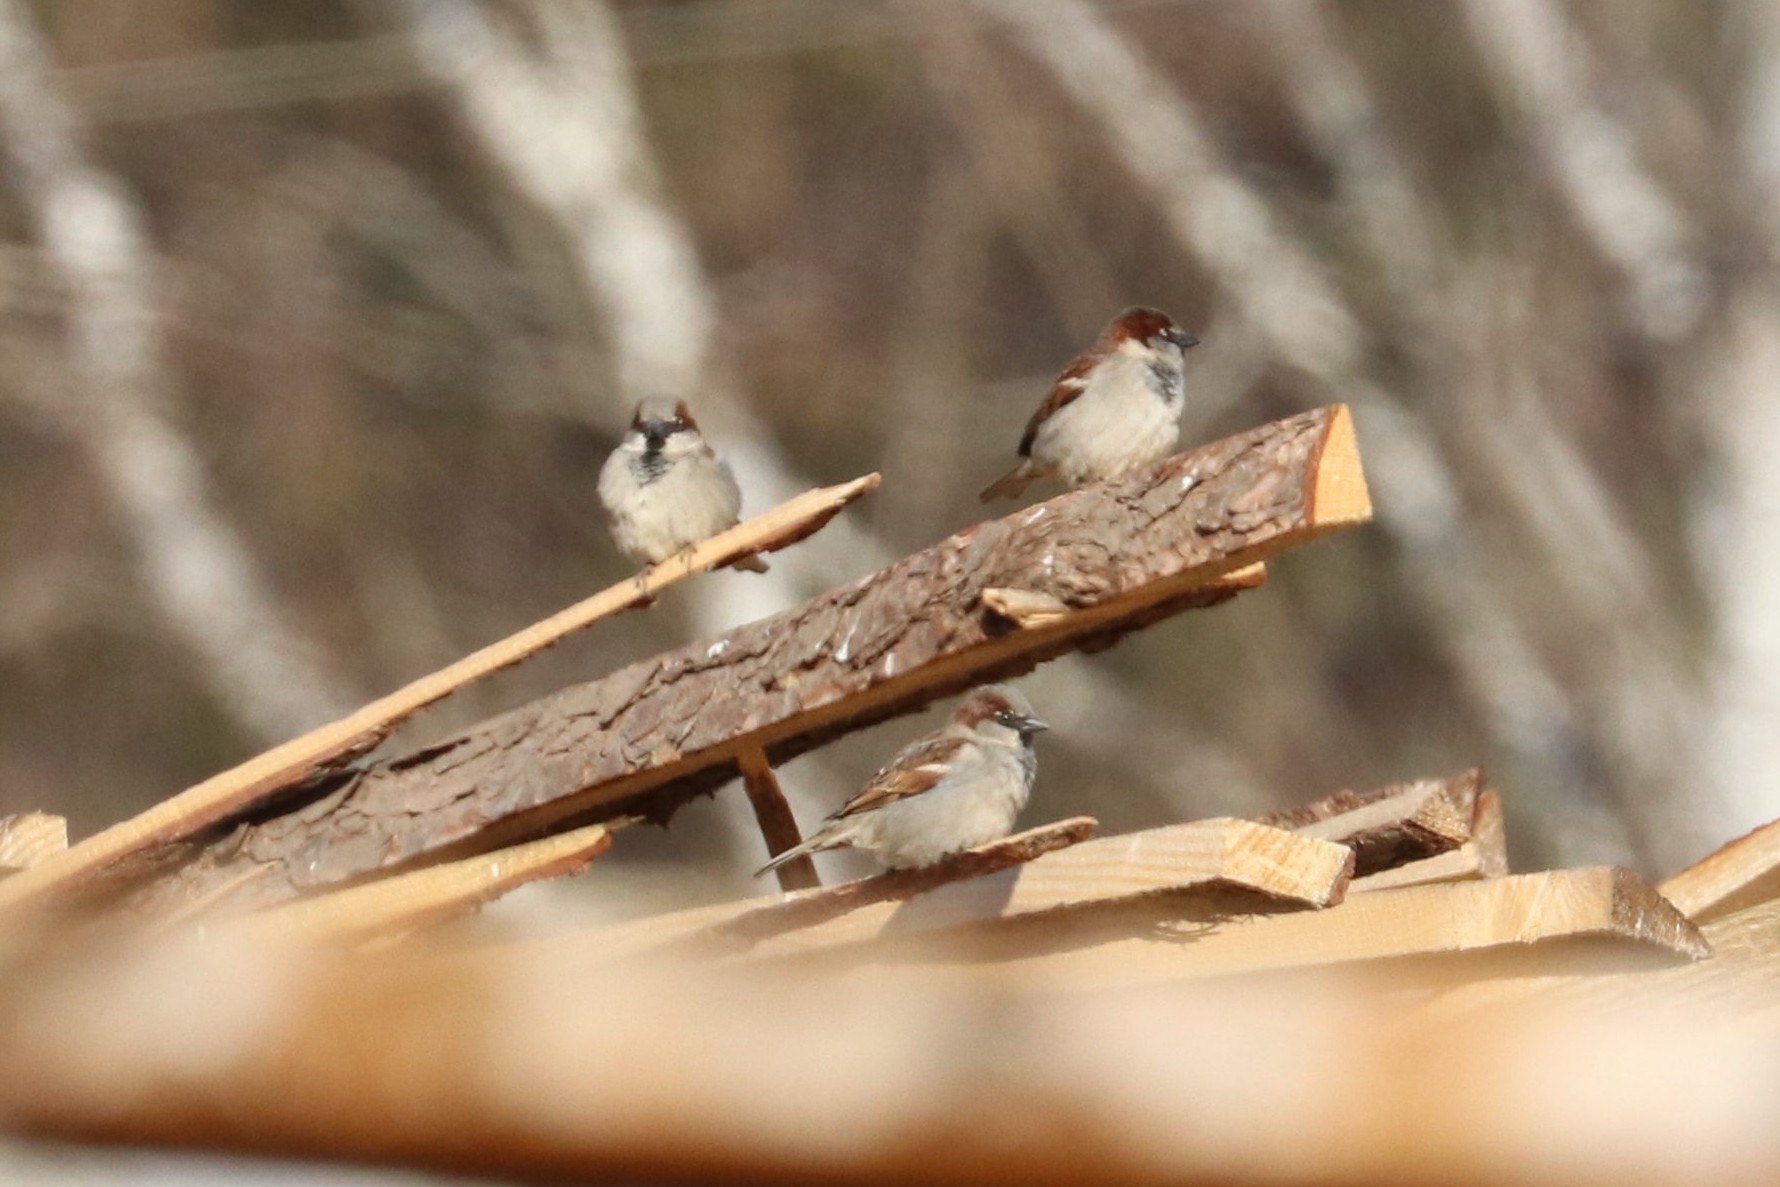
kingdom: Animalia
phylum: Chordata
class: Aves
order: Passeriformes
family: Passeridae
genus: Passer
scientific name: Passer domesticus
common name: House sparrow
